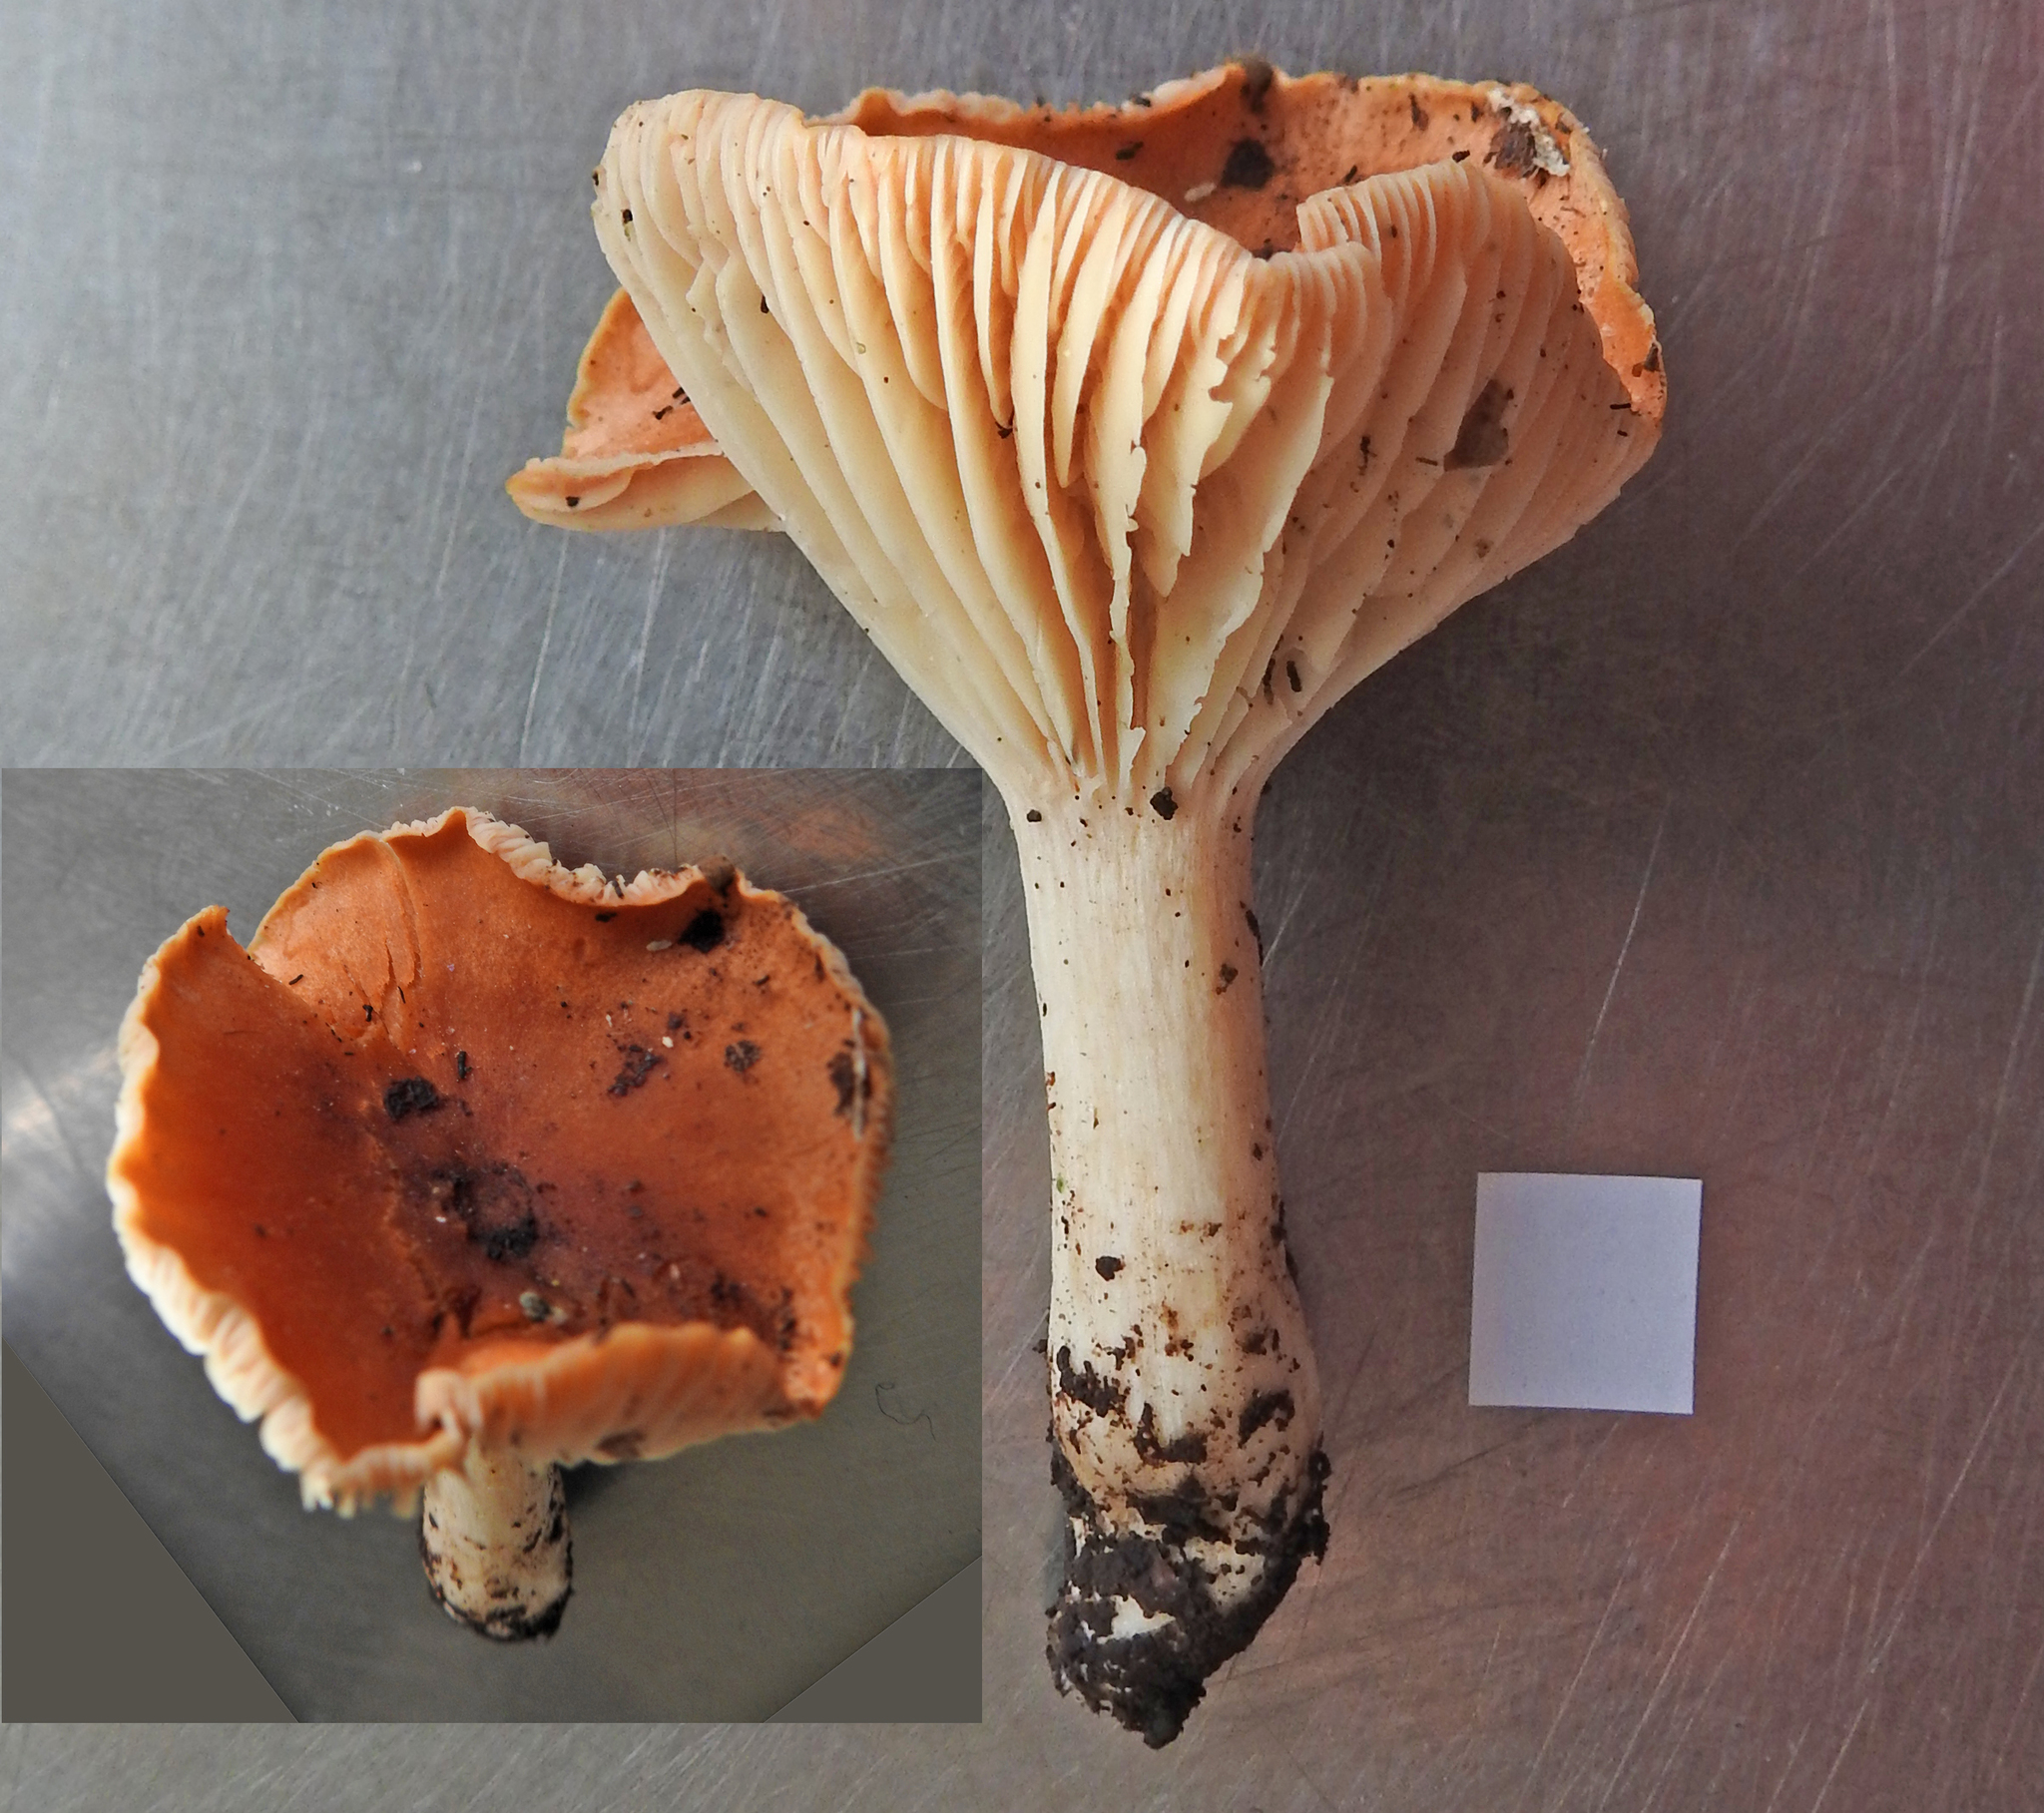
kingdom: Fungi
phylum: Basidiomycota
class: Agaricomycetes
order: Agaricales
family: Hygrophoraceae
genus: Cuphophyllus
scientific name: Cuphophyllus
